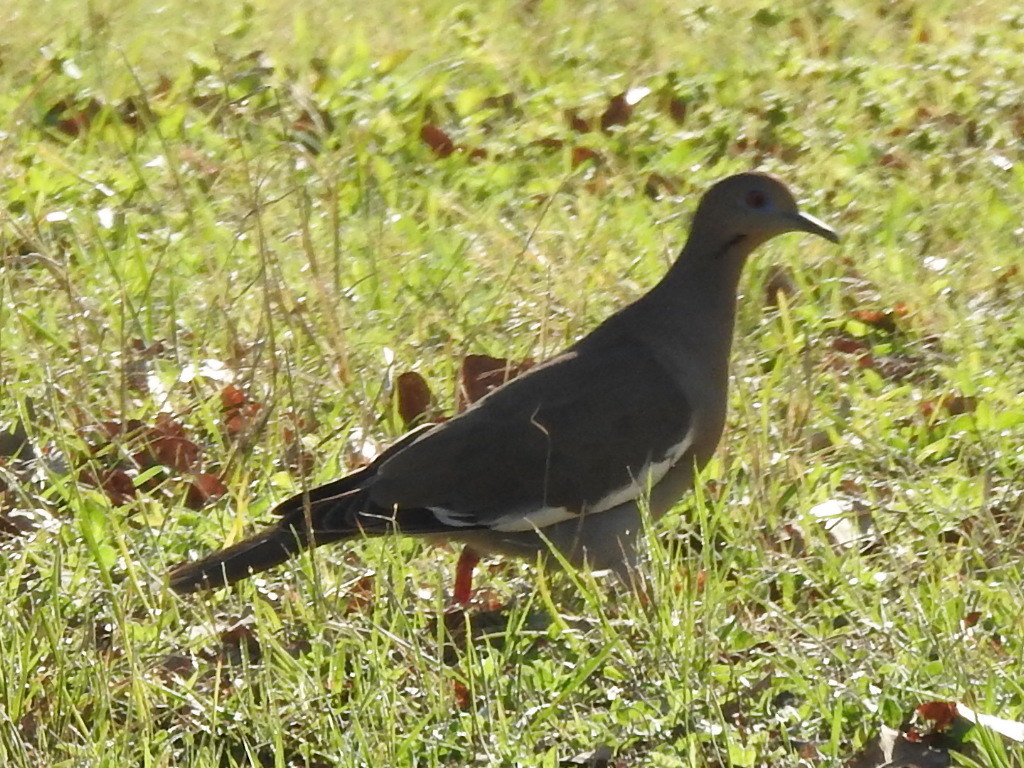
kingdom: Animalia
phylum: Chordata
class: Aves
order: Columbiformes
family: Columbidae
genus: Zenaida
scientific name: Zenaida asiatica
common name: White-winged dove
